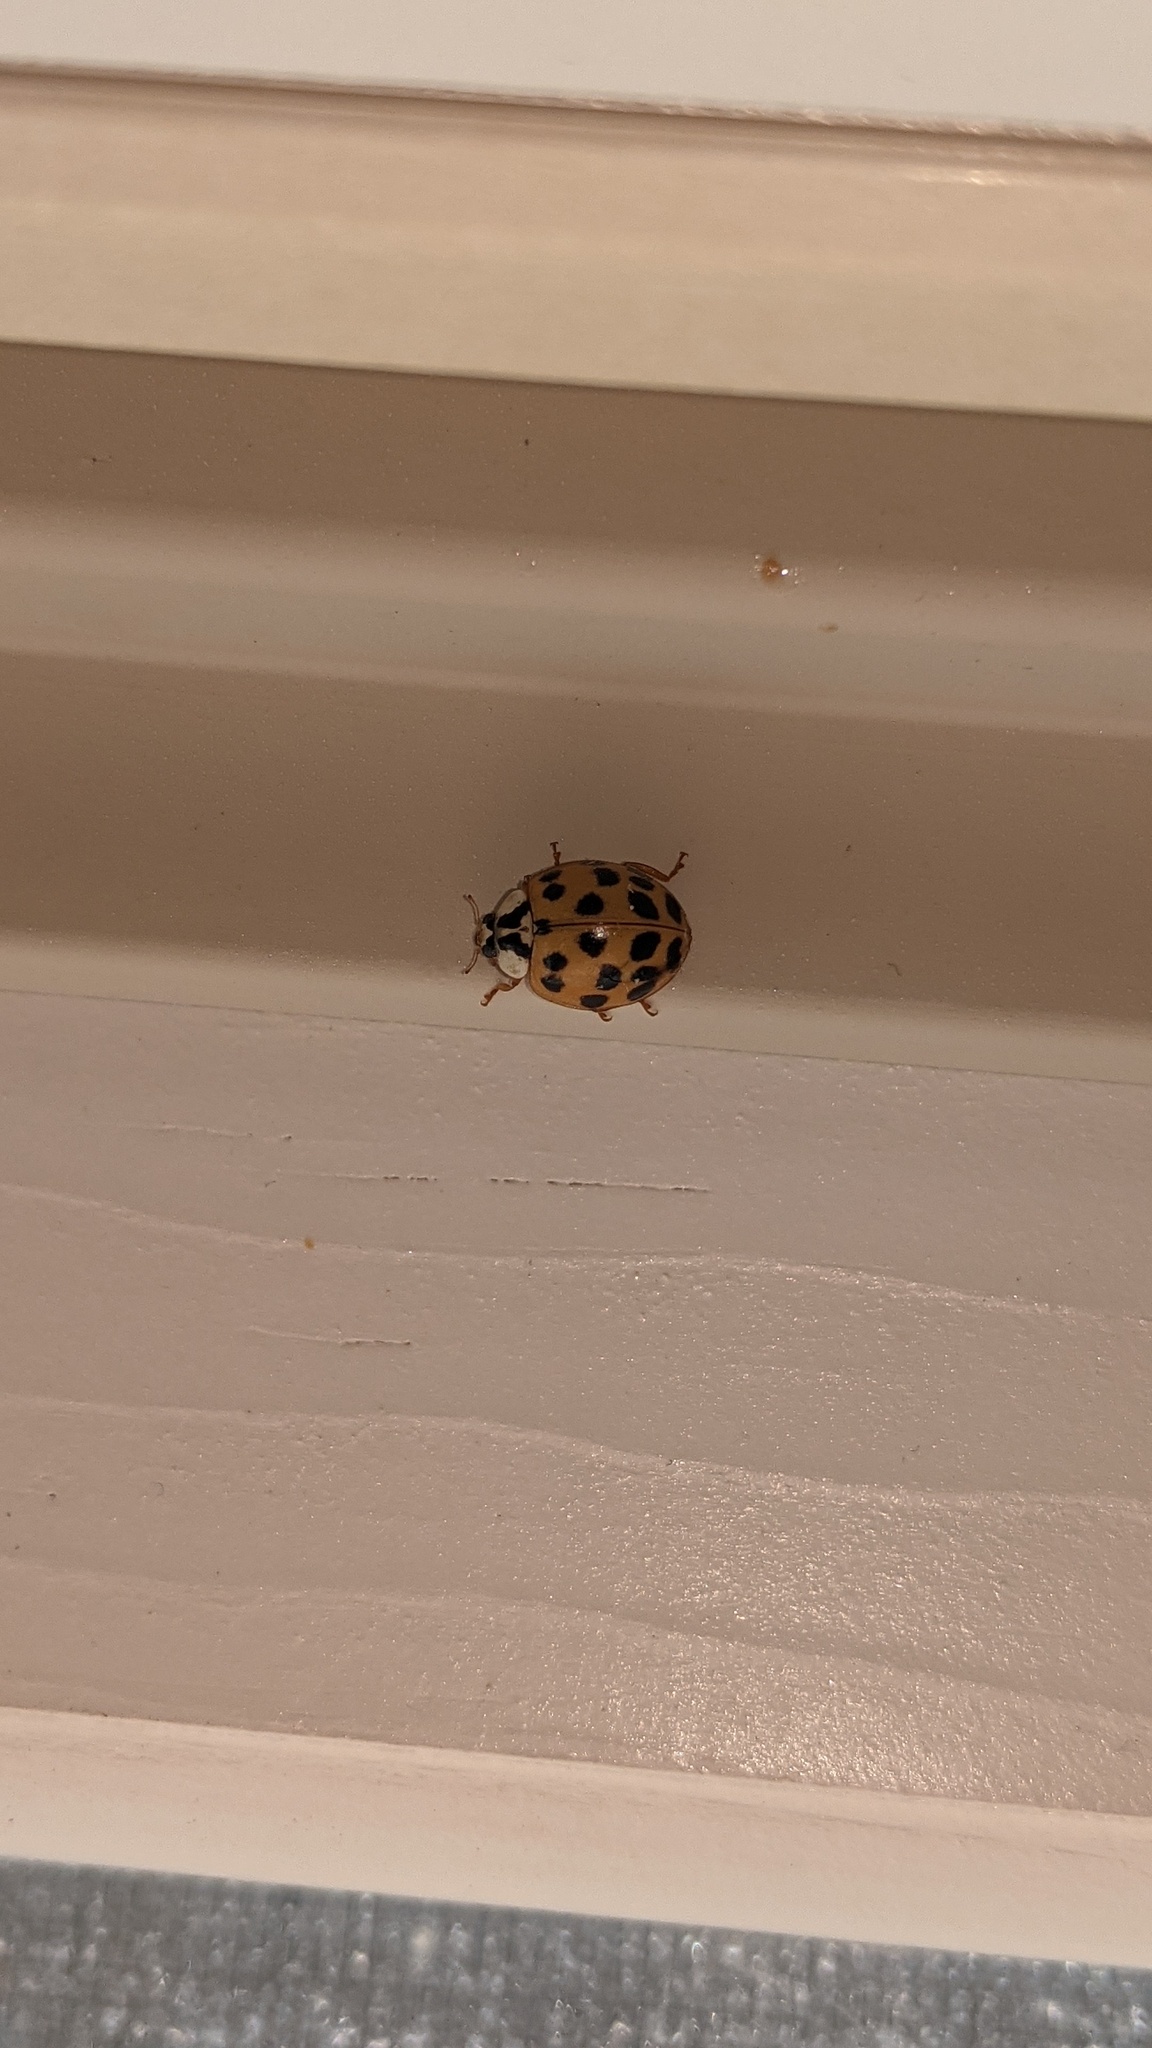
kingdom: Animalia
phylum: Arthropoda
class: Insecta
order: Coleoptera
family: Coccinellidae
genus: Harmonia
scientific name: Harmonia axyridis
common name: Harlequin ladybird
